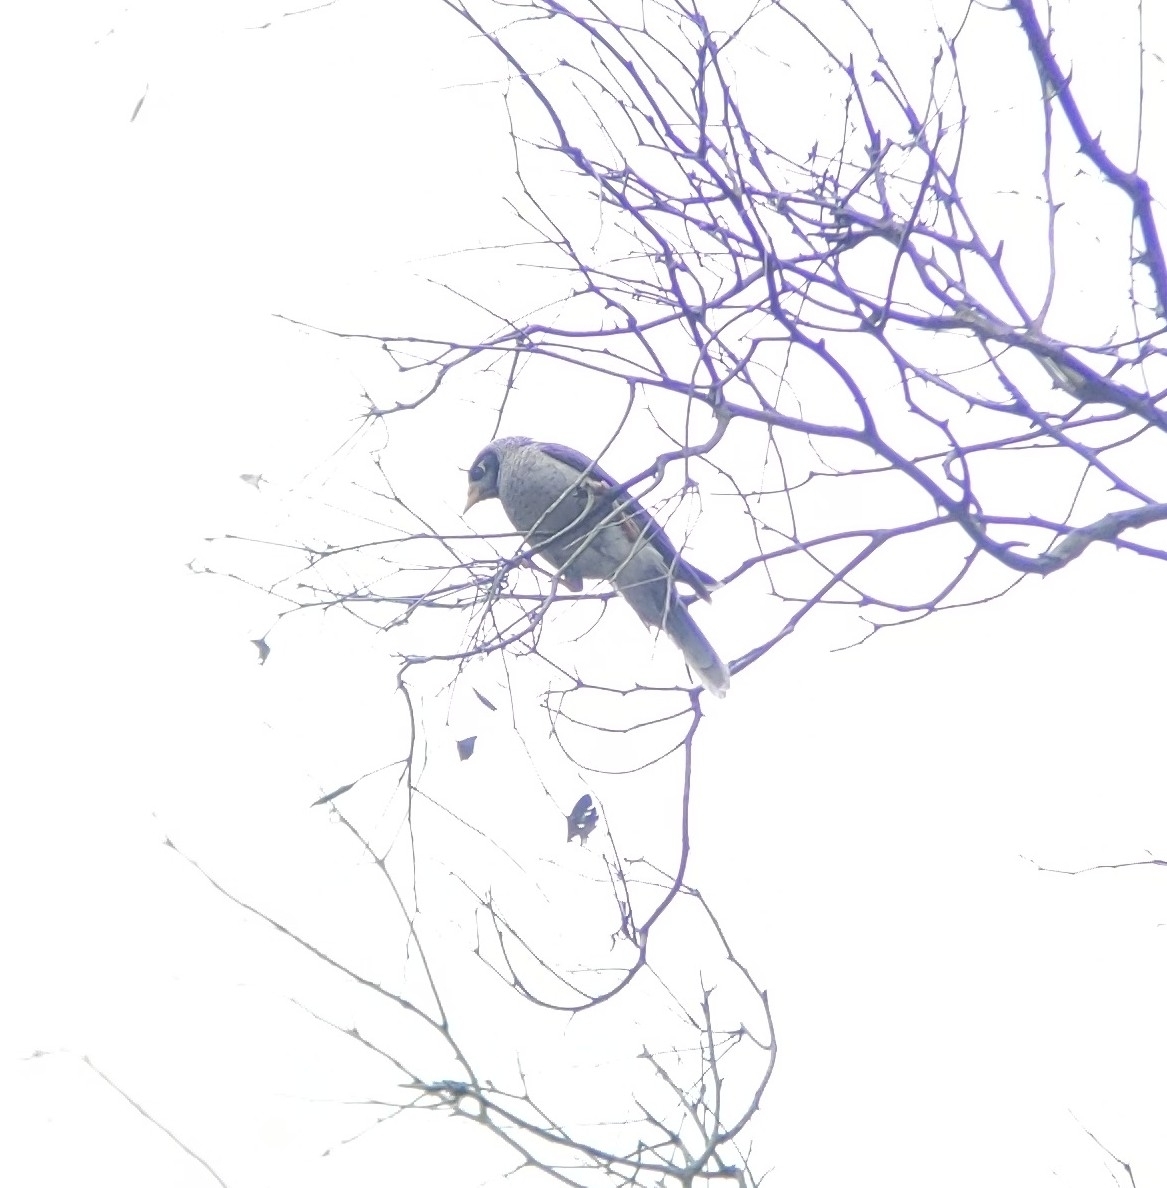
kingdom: Animalia
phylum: Chordata
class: Aves
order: Passeriformes
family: Meliphagidae
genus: Manorina
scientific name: Manorina melanocephala
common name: Noisy miner
